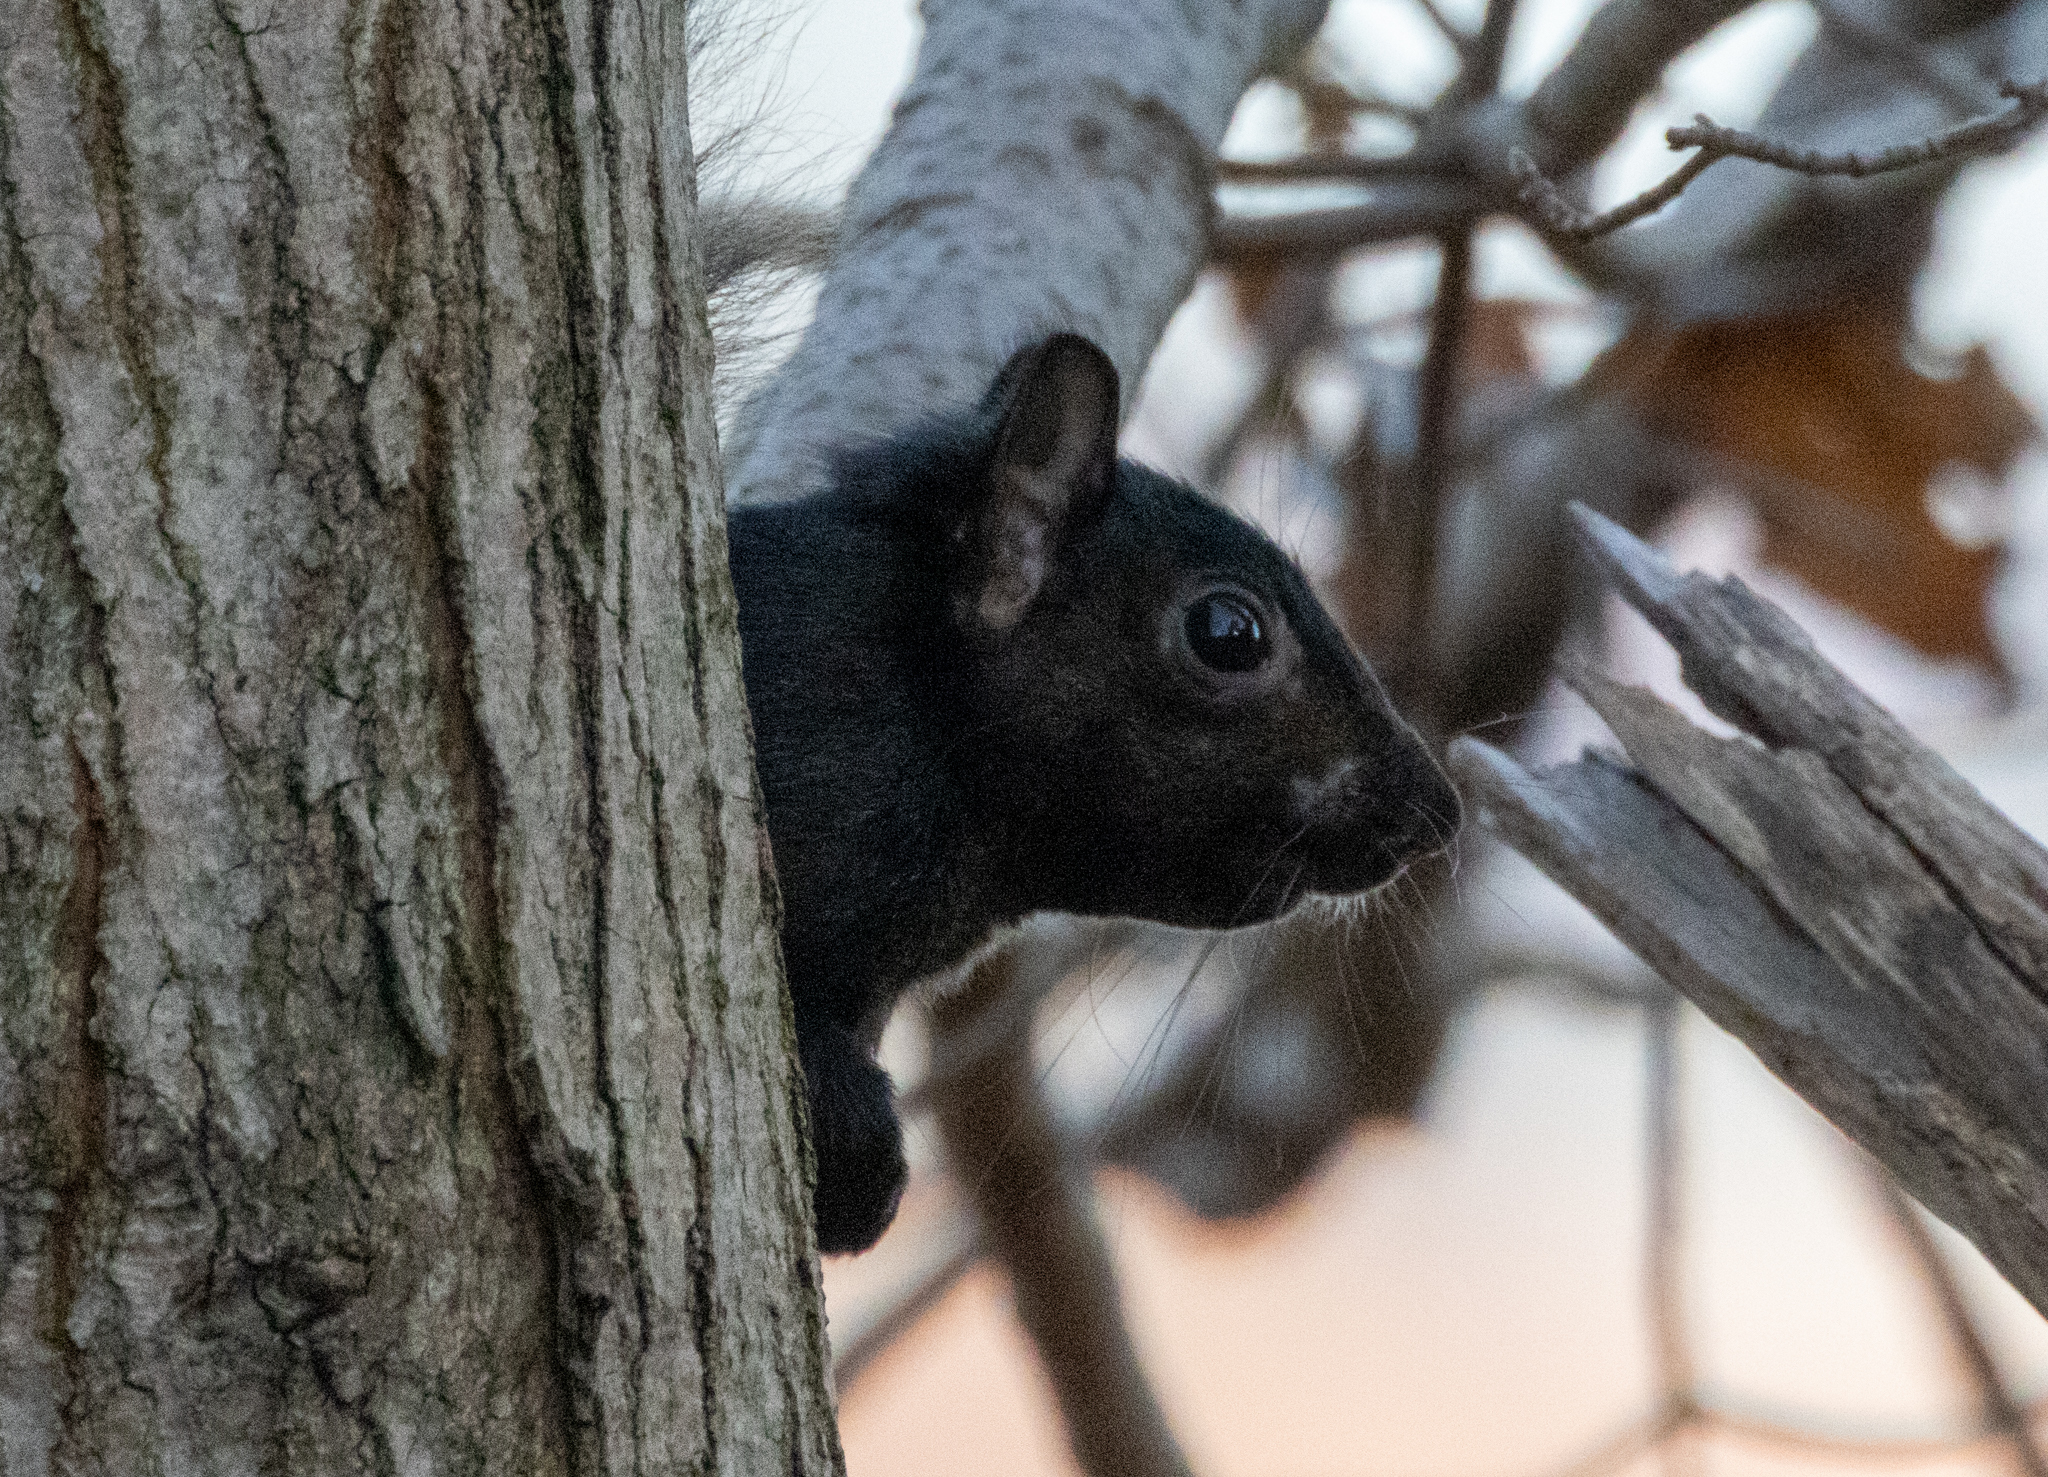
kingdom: Animalia
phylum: Chordata
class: Mammalia
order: Rodentia
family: Sciuridae
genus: Sciurus
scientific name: Sciurus carolinensis
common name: Eastern gray squirrel
